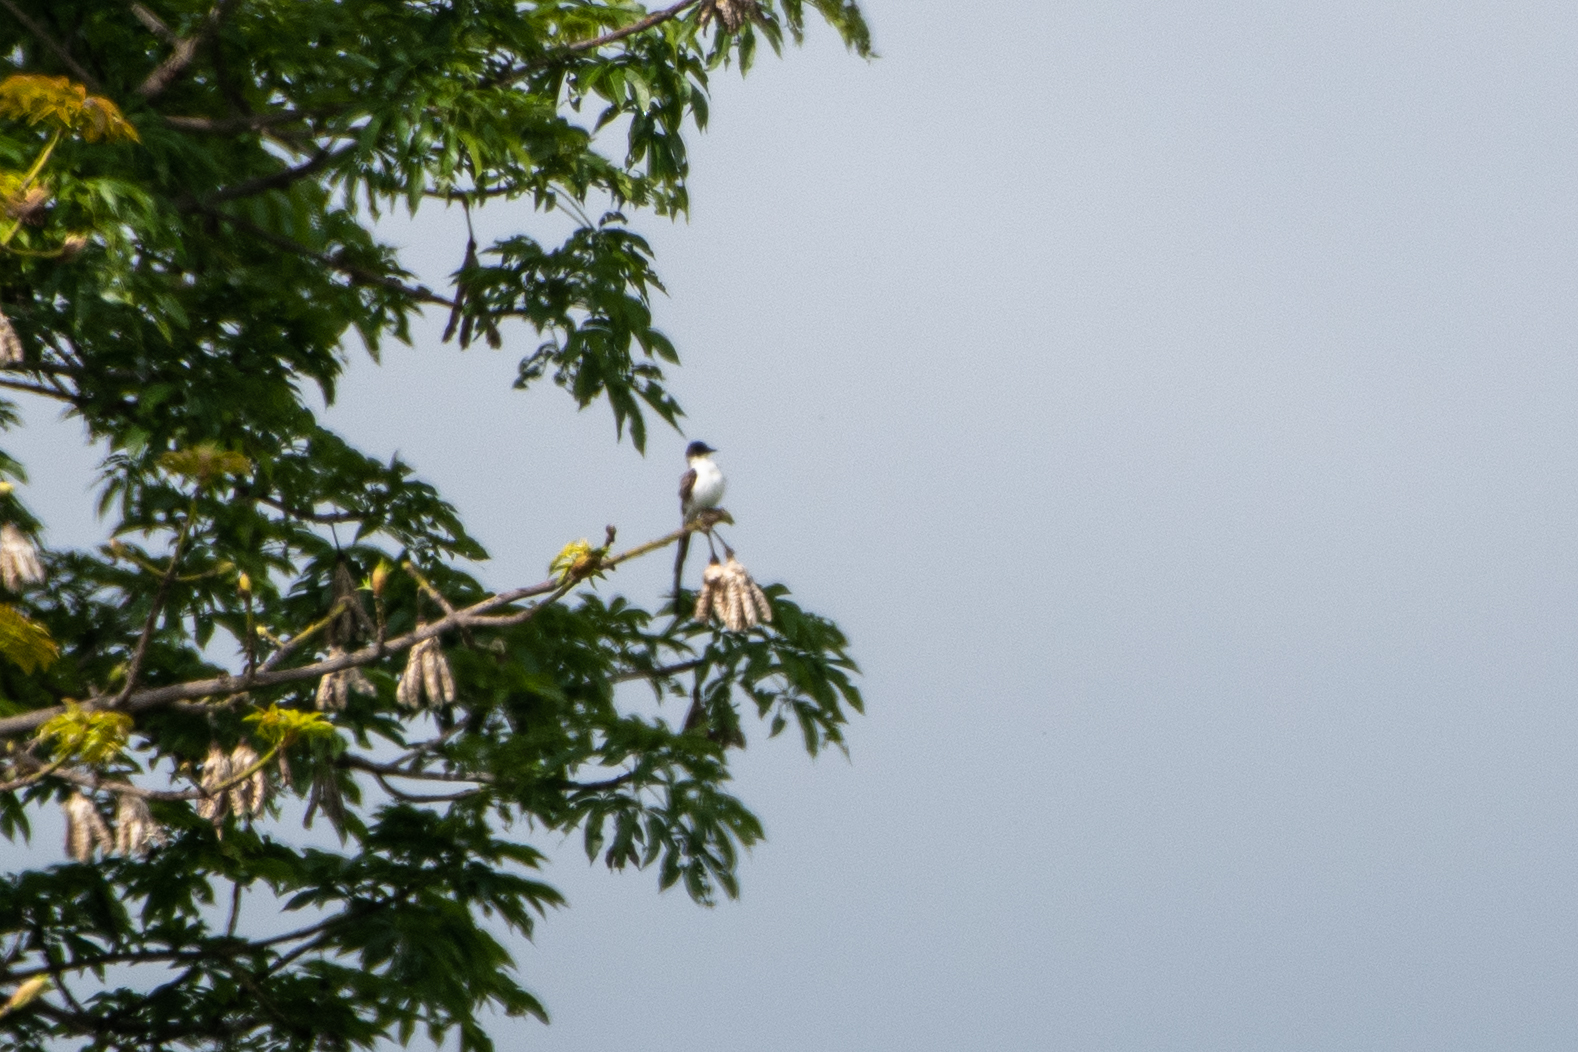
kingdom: Animalia
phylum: Chordata
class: Aves
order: Passeriformes
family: Tyrannidae
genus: Tyrannus
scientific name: Tyrannus savana
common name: Fork-tailed flycatcher
